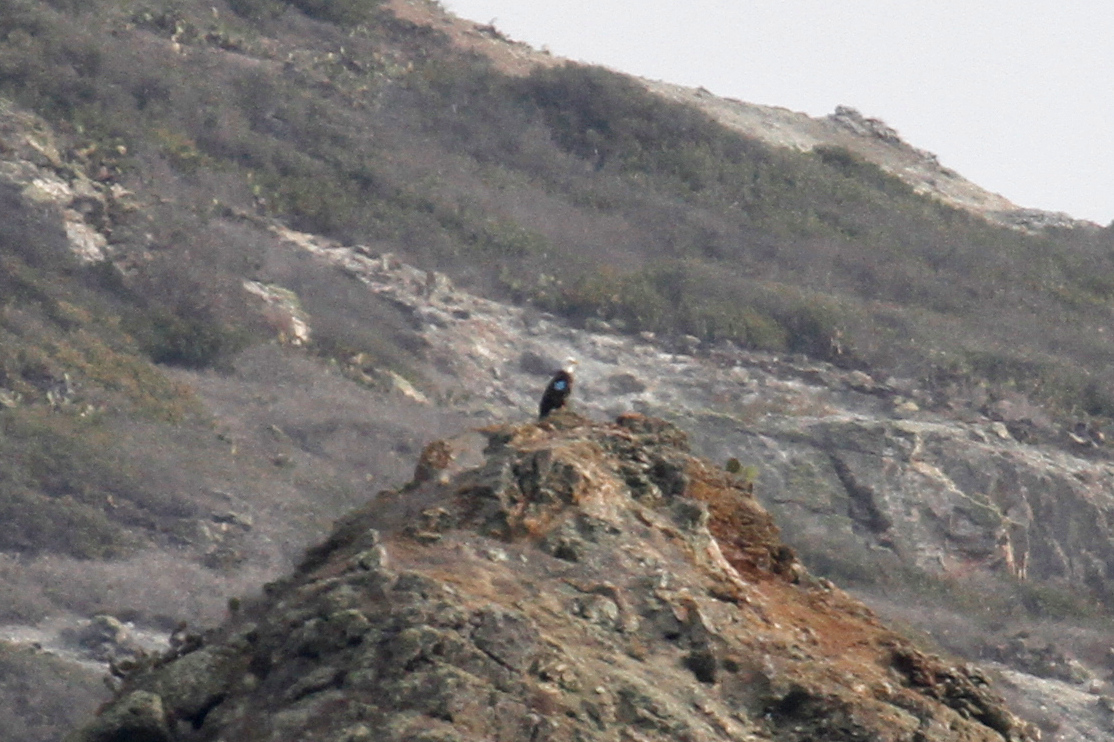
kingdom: Animalia
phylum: Chordata
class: Aves
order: Accipitriformes
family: Accipitridae
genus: Haliaeetus
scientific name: Haliaeetus leucocephalus
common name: Bald eagle
